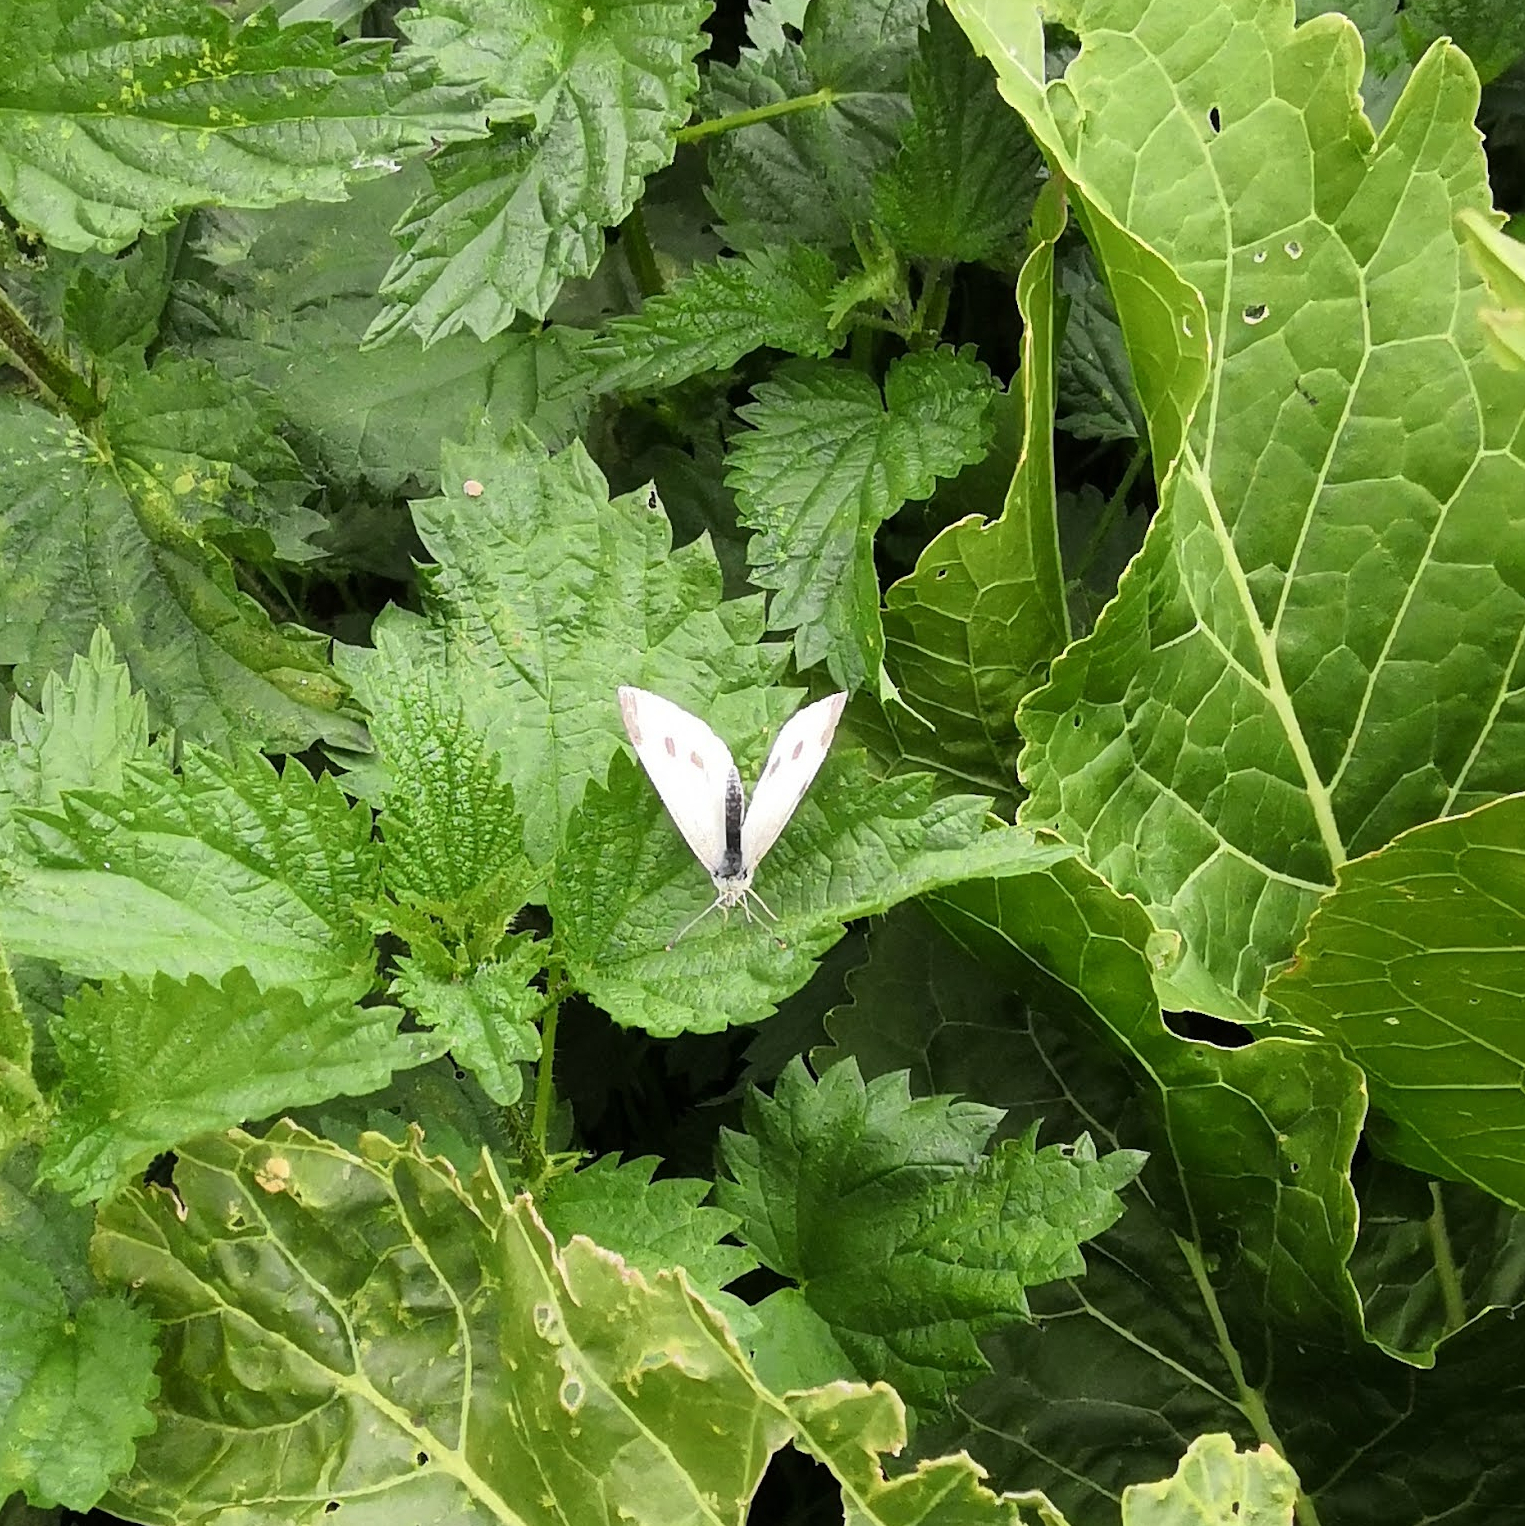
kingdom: Animalia
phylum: Arthropoda
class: Insecta
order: Lepidoptera
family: Pieridae
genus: Pieris
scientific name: Pieris rapae
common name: Small white
